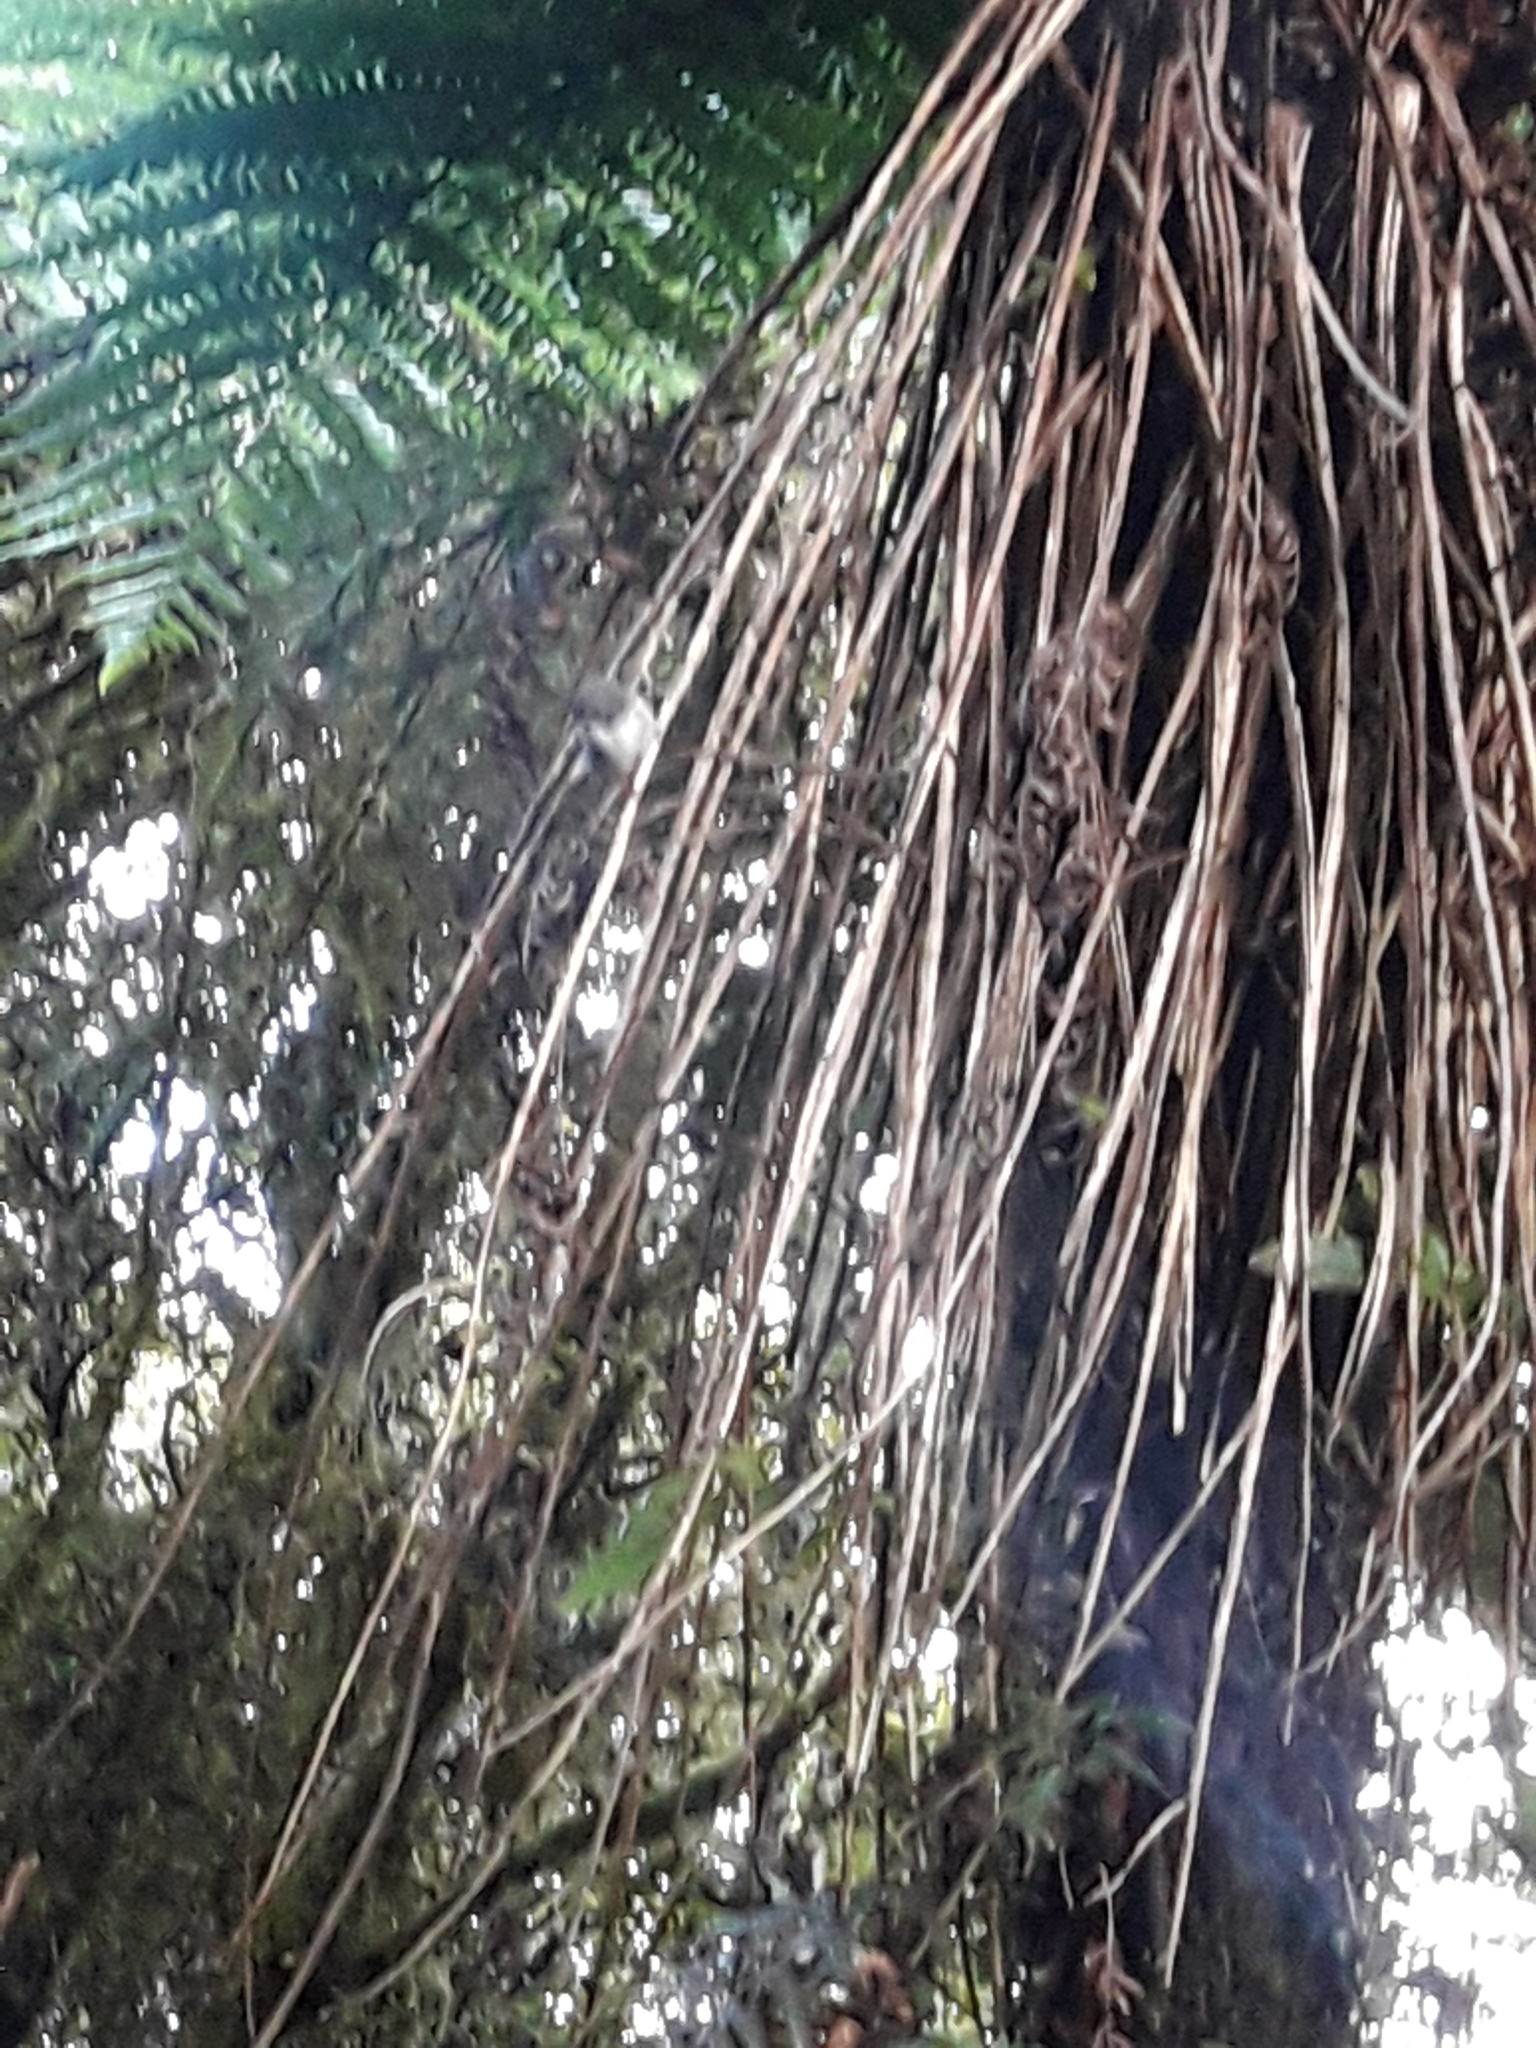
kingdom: Animalia
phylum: Chordata
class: Aves
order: Passeriformes
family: Acanthizidae
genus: Gerygone
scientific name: Gerygone igata
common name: Grey gerygone
